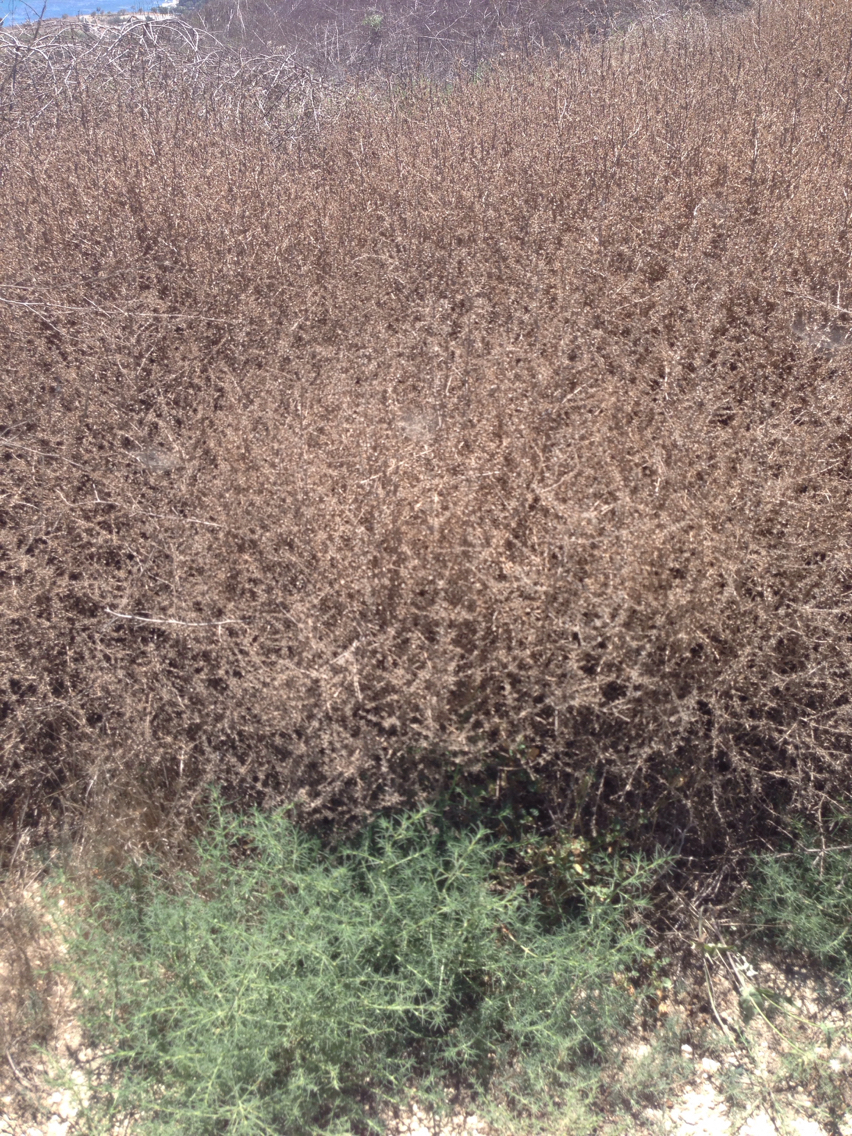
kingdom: Plantae
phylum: Tracheophyta
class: Magnoliopsida
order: Caryophyllales
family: Amaranthaceae
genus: Salsola
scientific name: Salsola tragus
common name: Prickly russian thistle
